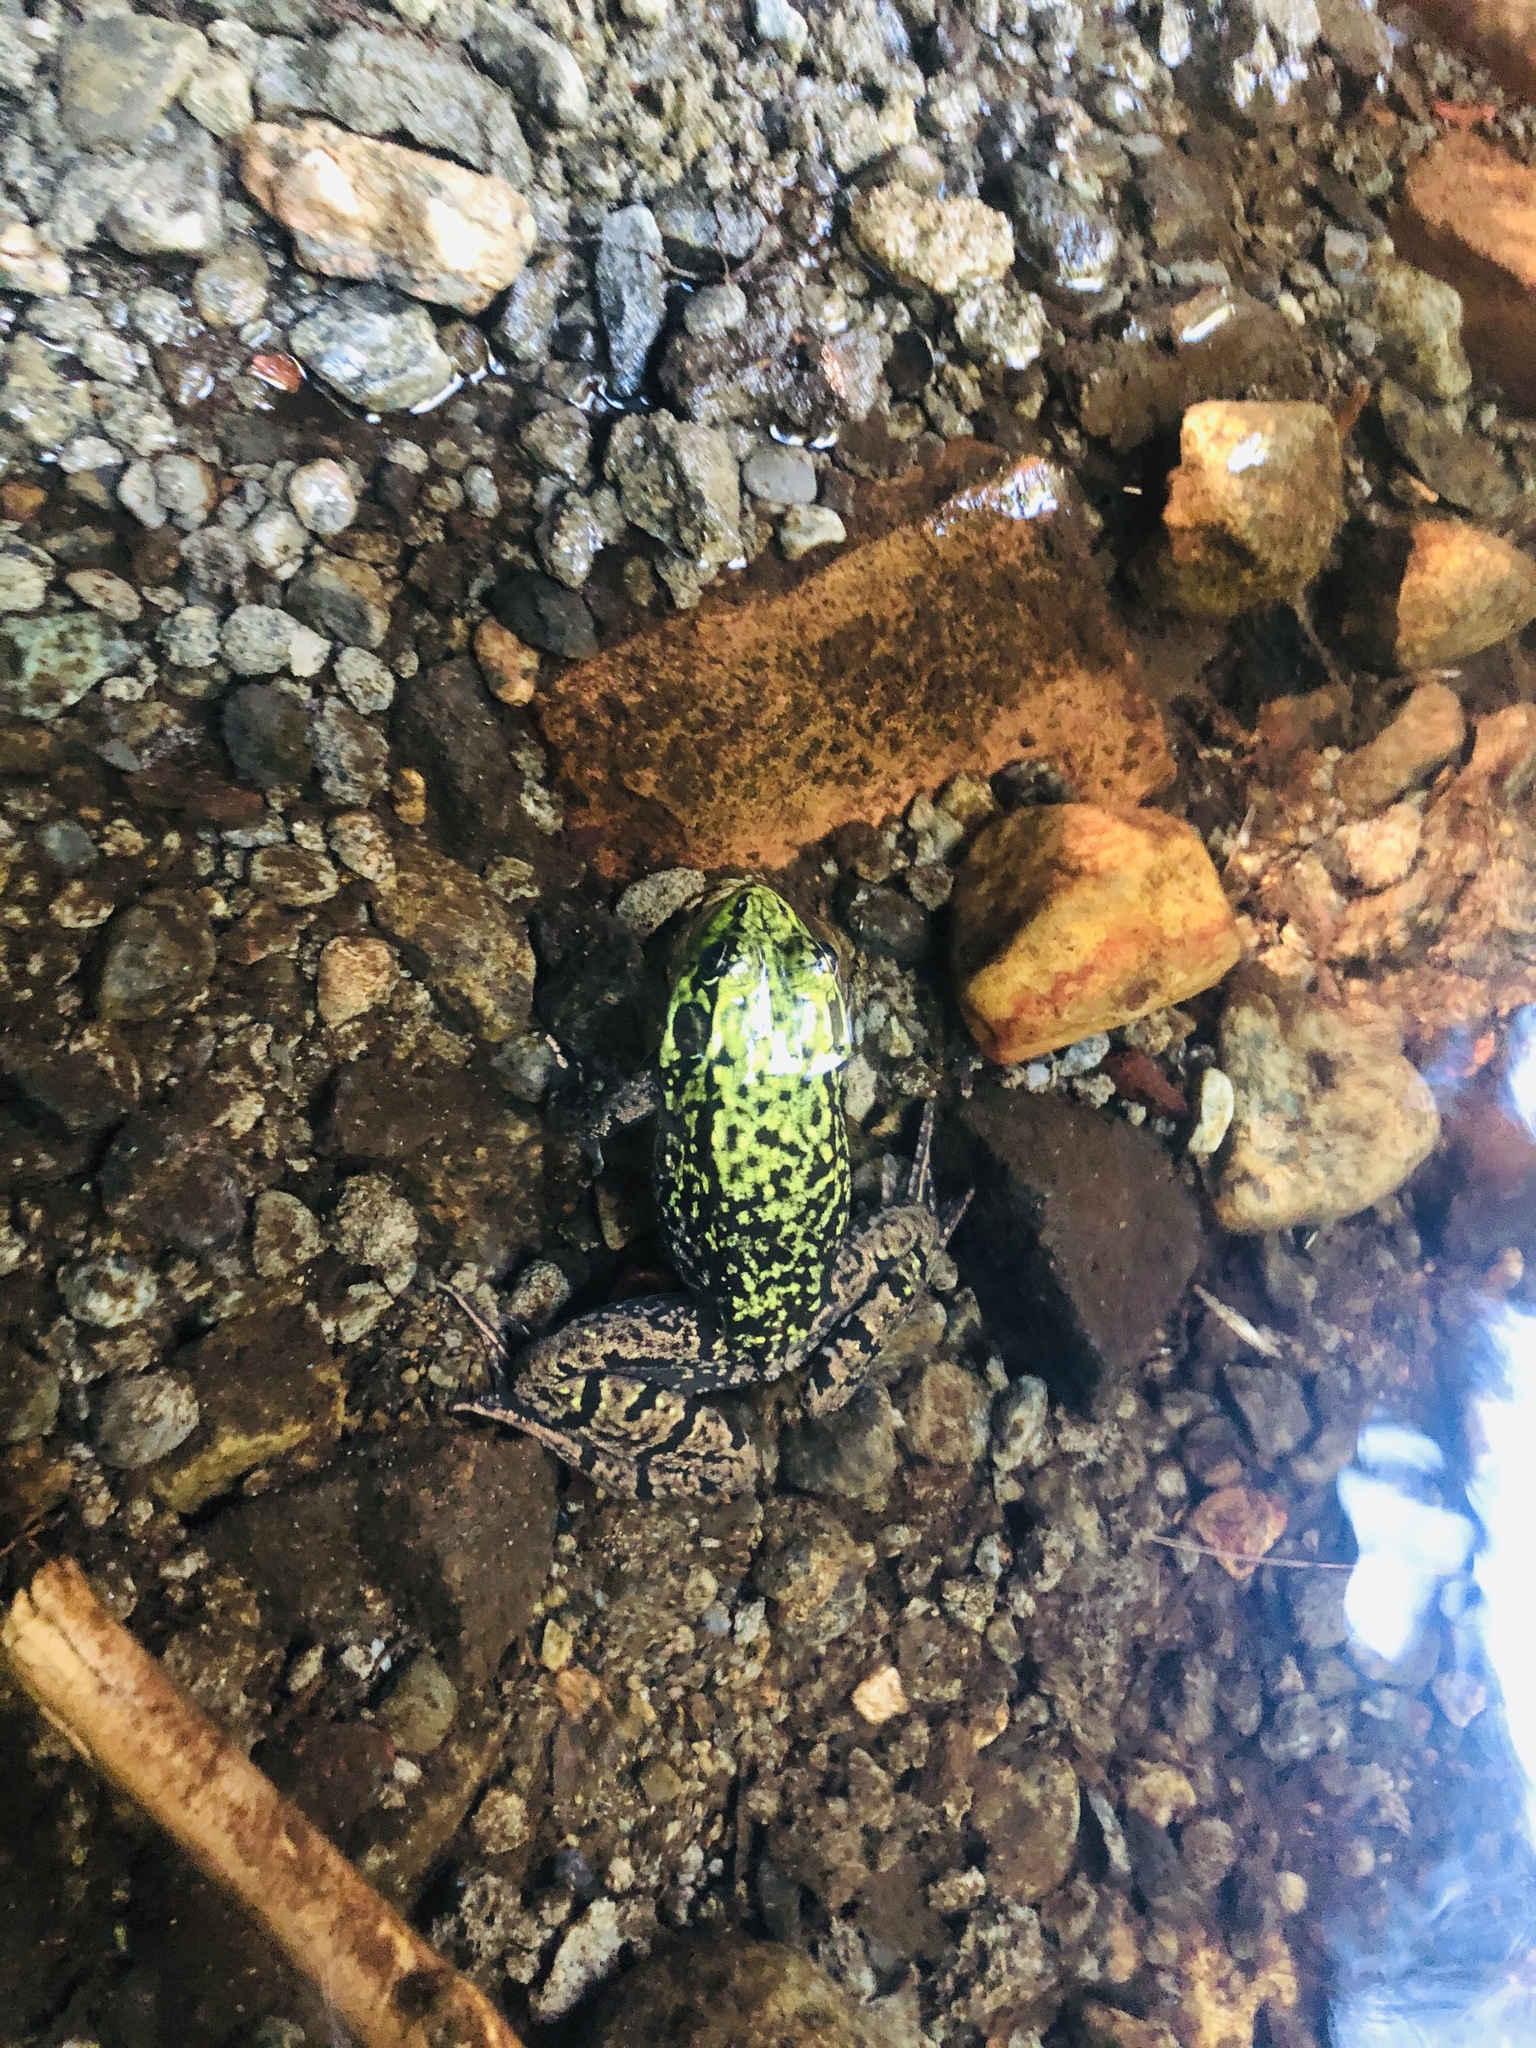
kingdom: Animalia
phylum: Chordata
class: Amphibia
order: Anura
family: Ranidae
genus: Lithobates
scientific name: Lithobates clamitans
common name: Green frog
